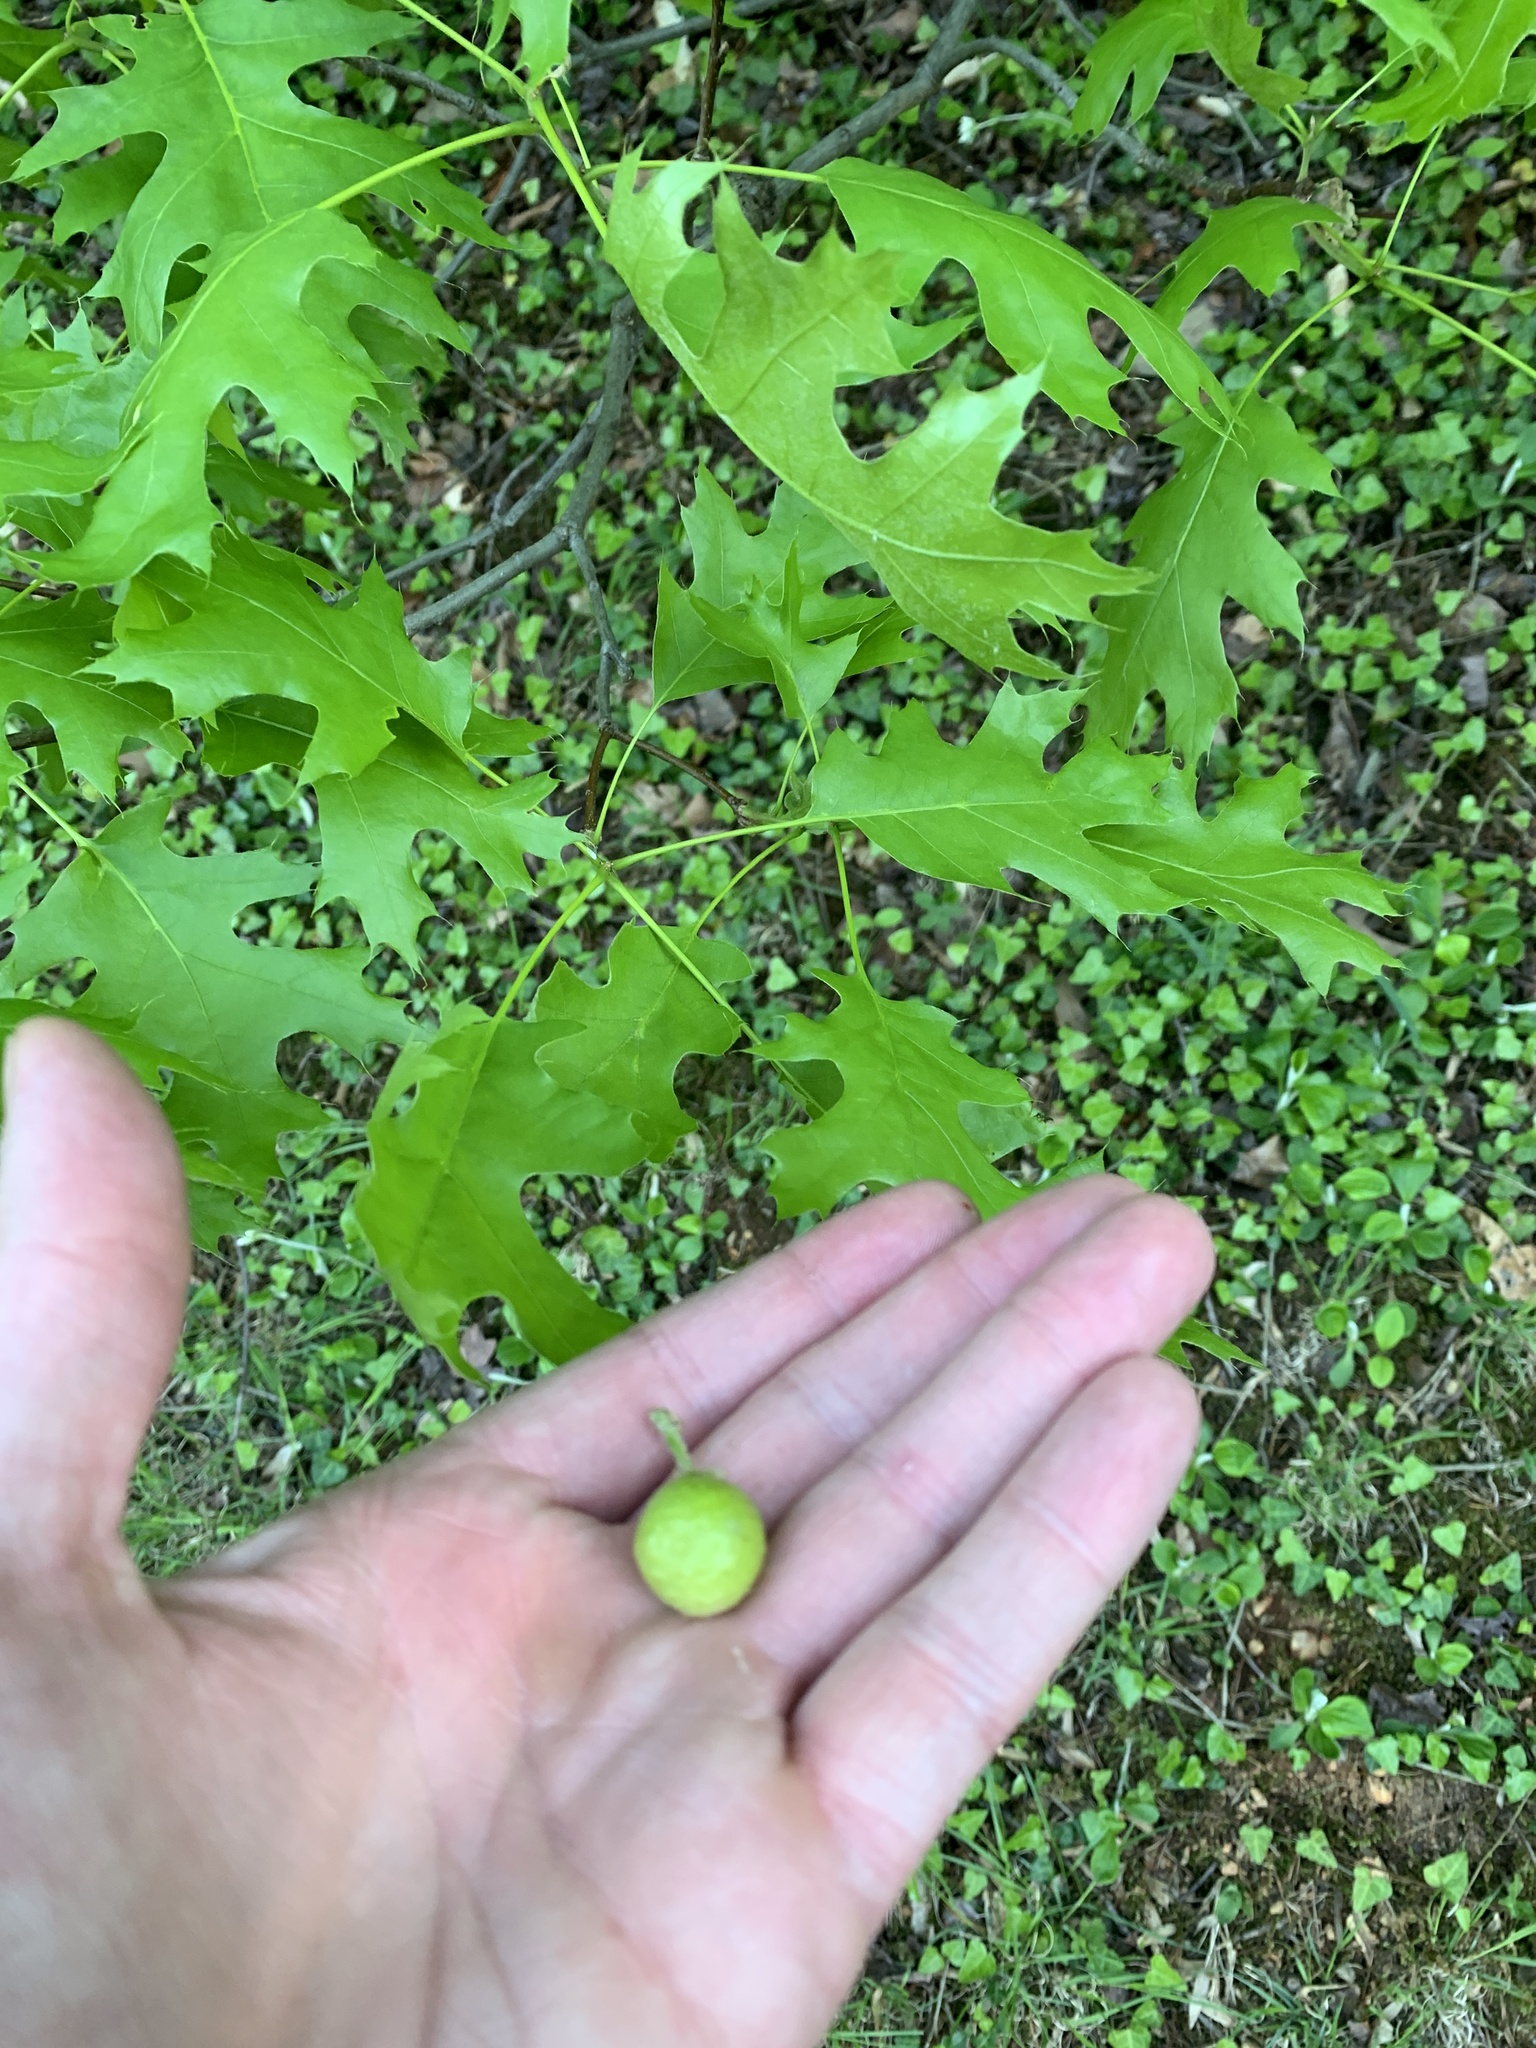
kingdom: Animalia
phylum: Arthropoda
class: Insecta
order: Hymenoptera
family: Cynipidae
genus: Amphibolips
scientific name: Amphibolips
